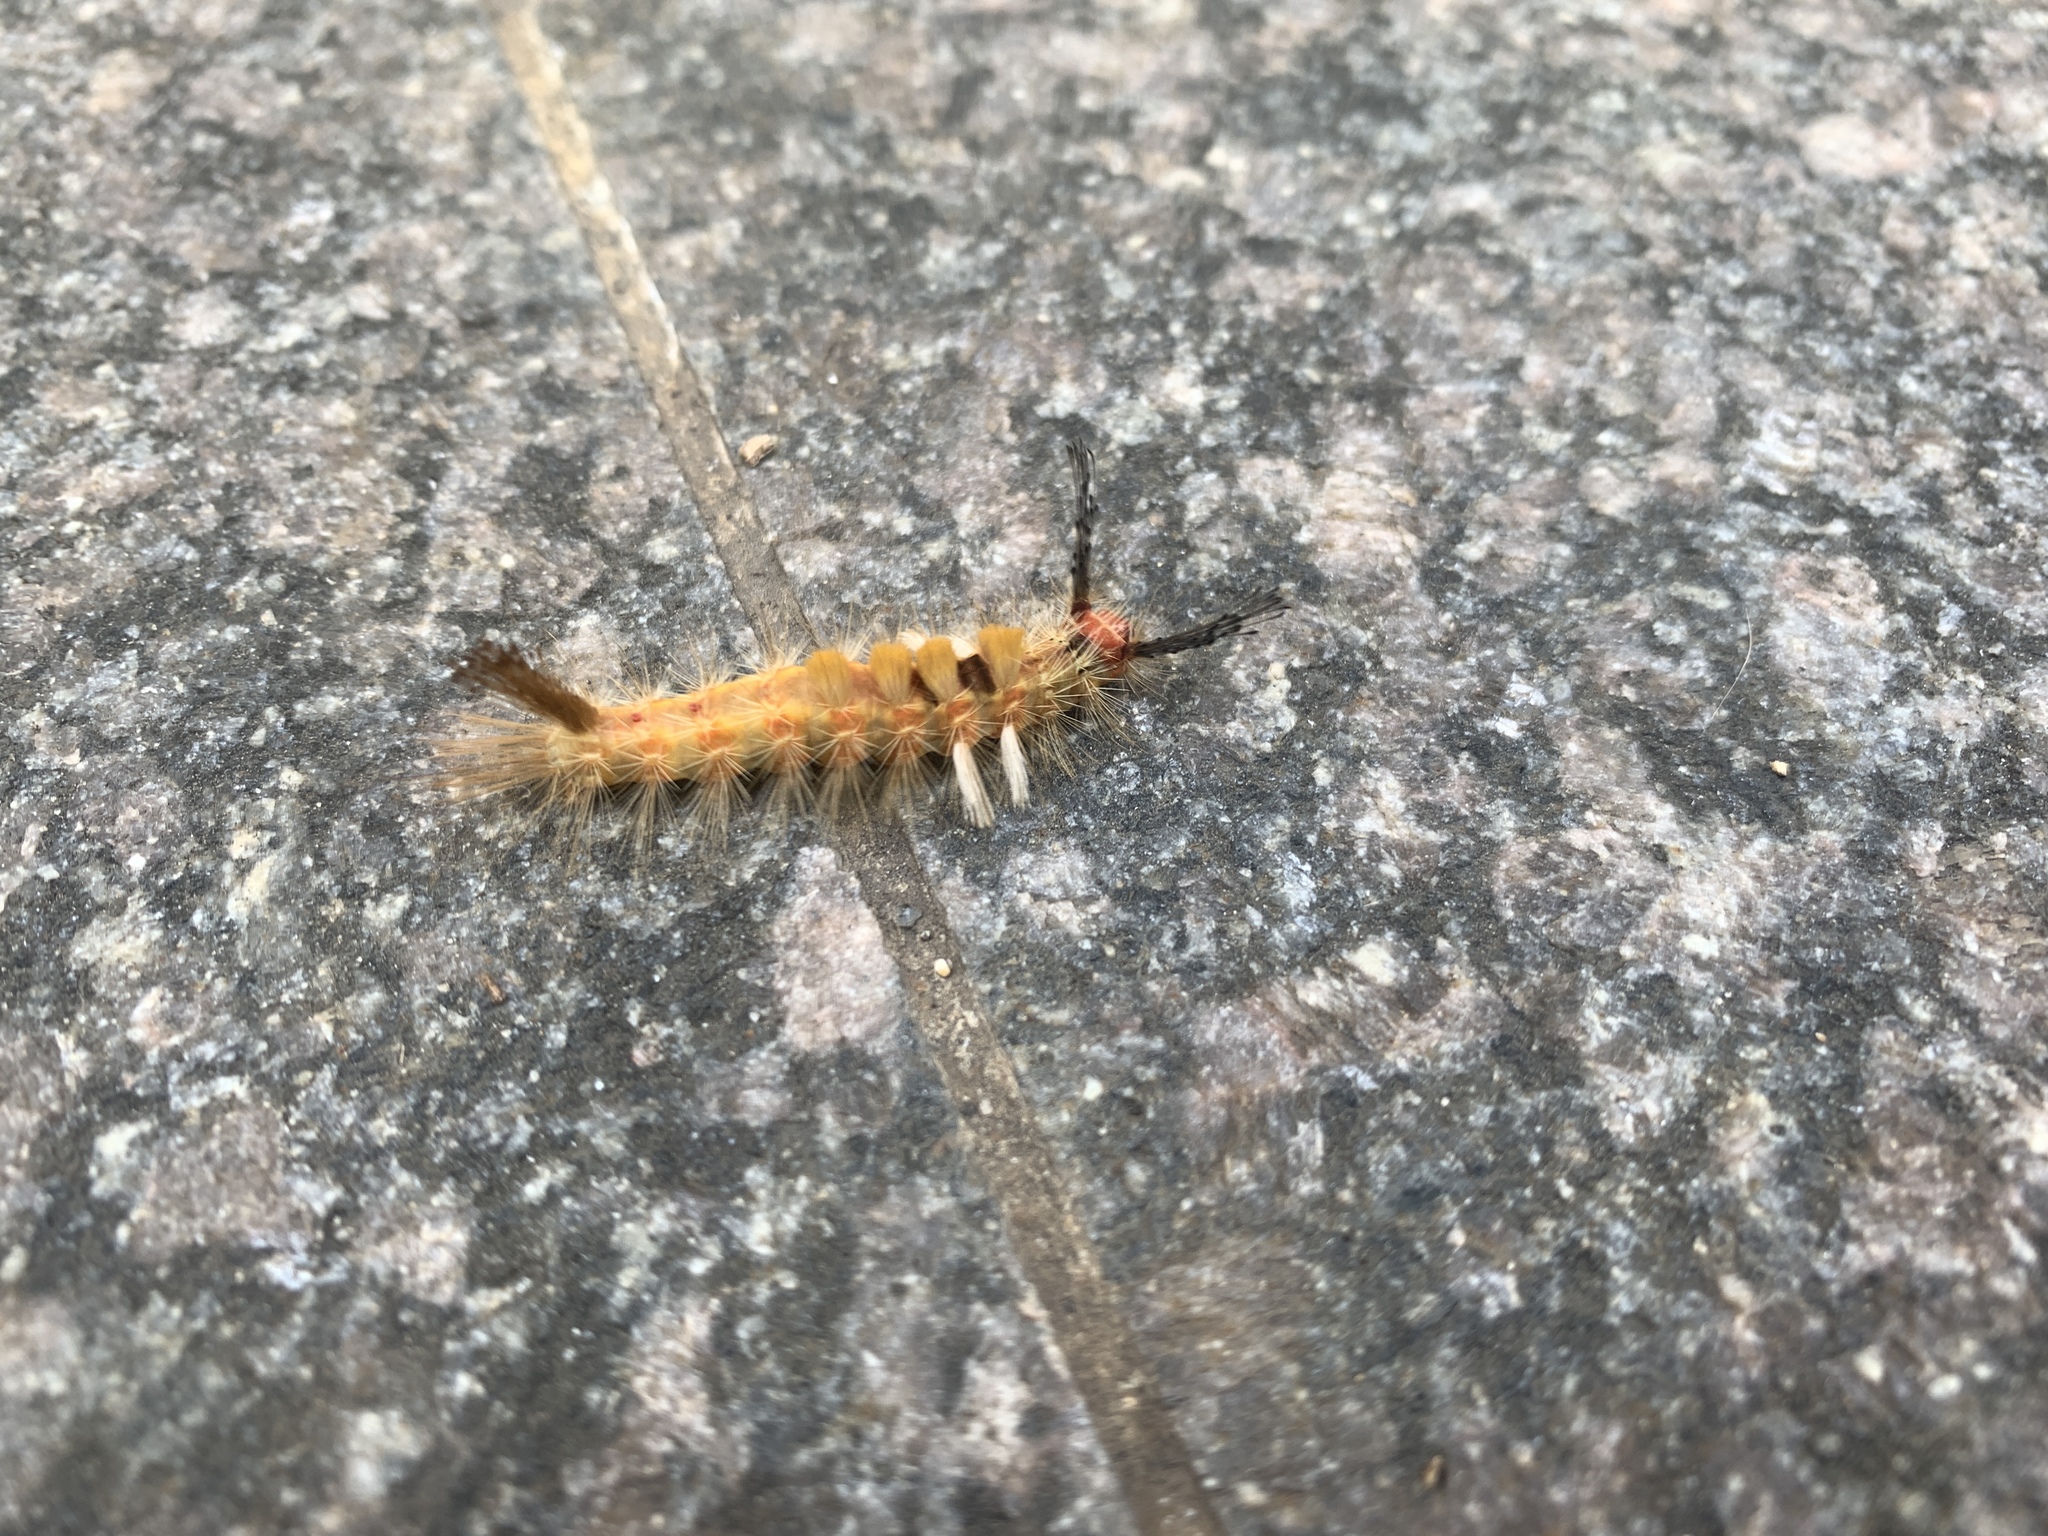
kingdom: Animalia
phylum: Arthropoda
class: Insecta
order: Lepidoptera
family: Erebidae
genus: Orgyia
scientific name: Orgyia postica
